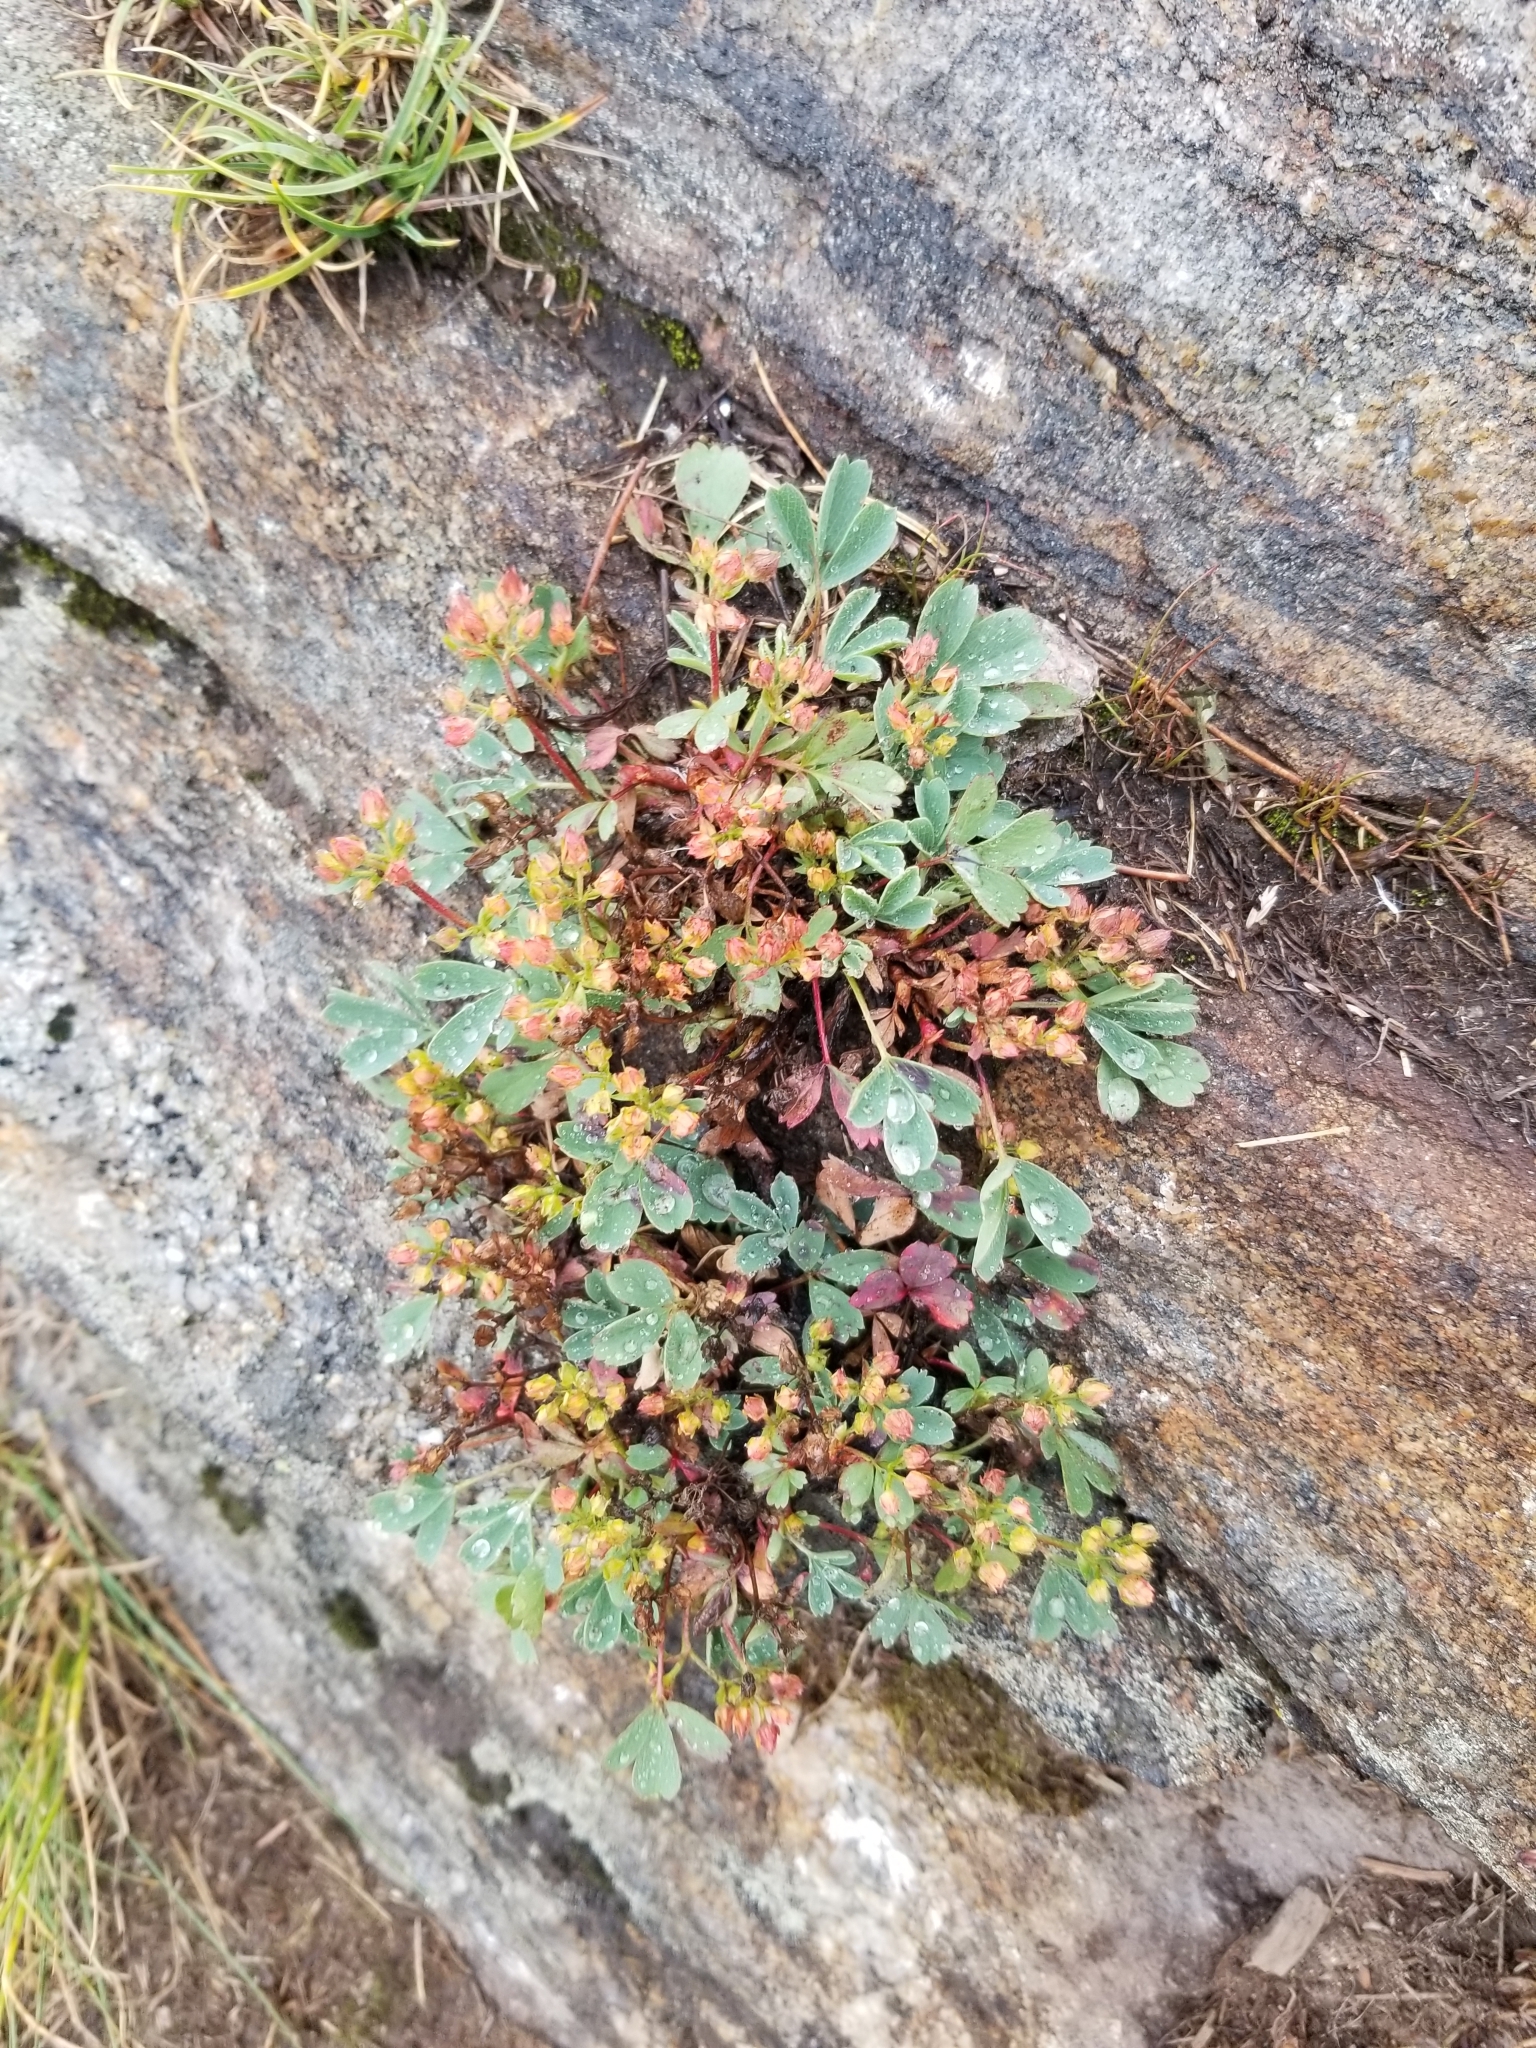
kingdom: Plantae
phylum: Tracheophyta
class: Magnoliopsida
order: Rosales
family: Rosaceae
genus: Sibbaldia
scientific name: Sibbaldia procumbens
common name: Creeping sibbaldia
